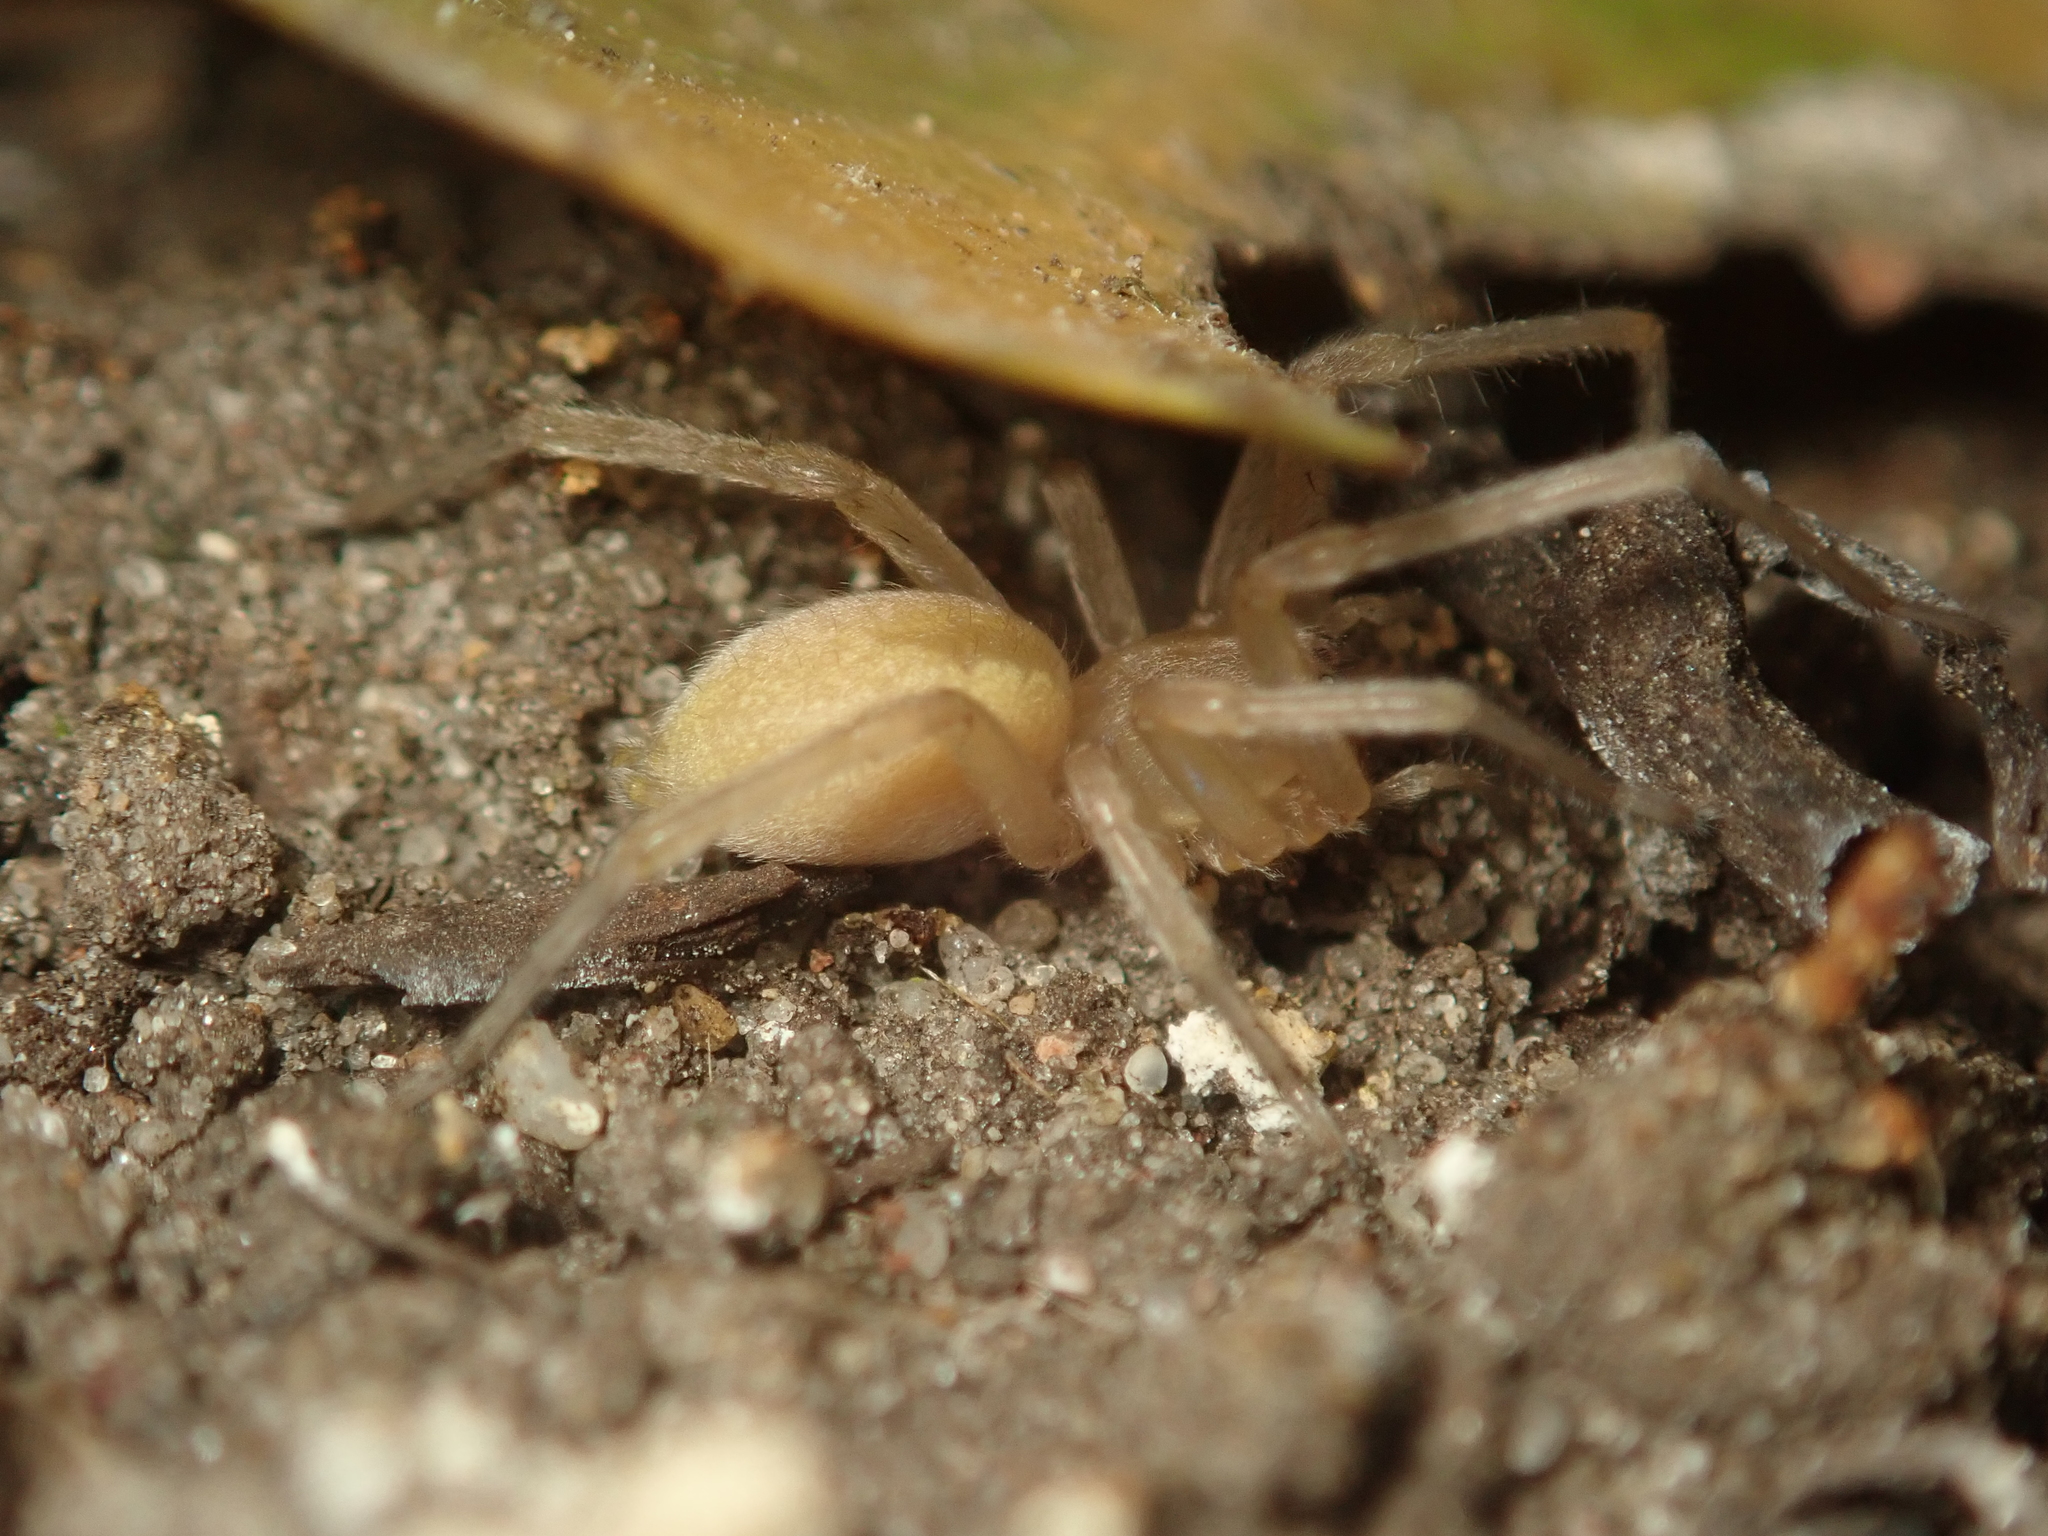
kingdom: Animalia
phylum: Arthropoda
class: Arachnida
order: Araneae
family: Cheiracanthiidae
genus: Cheiracanthium
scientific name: Cheiracanthium mildei
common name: Northern yellow sac spider
